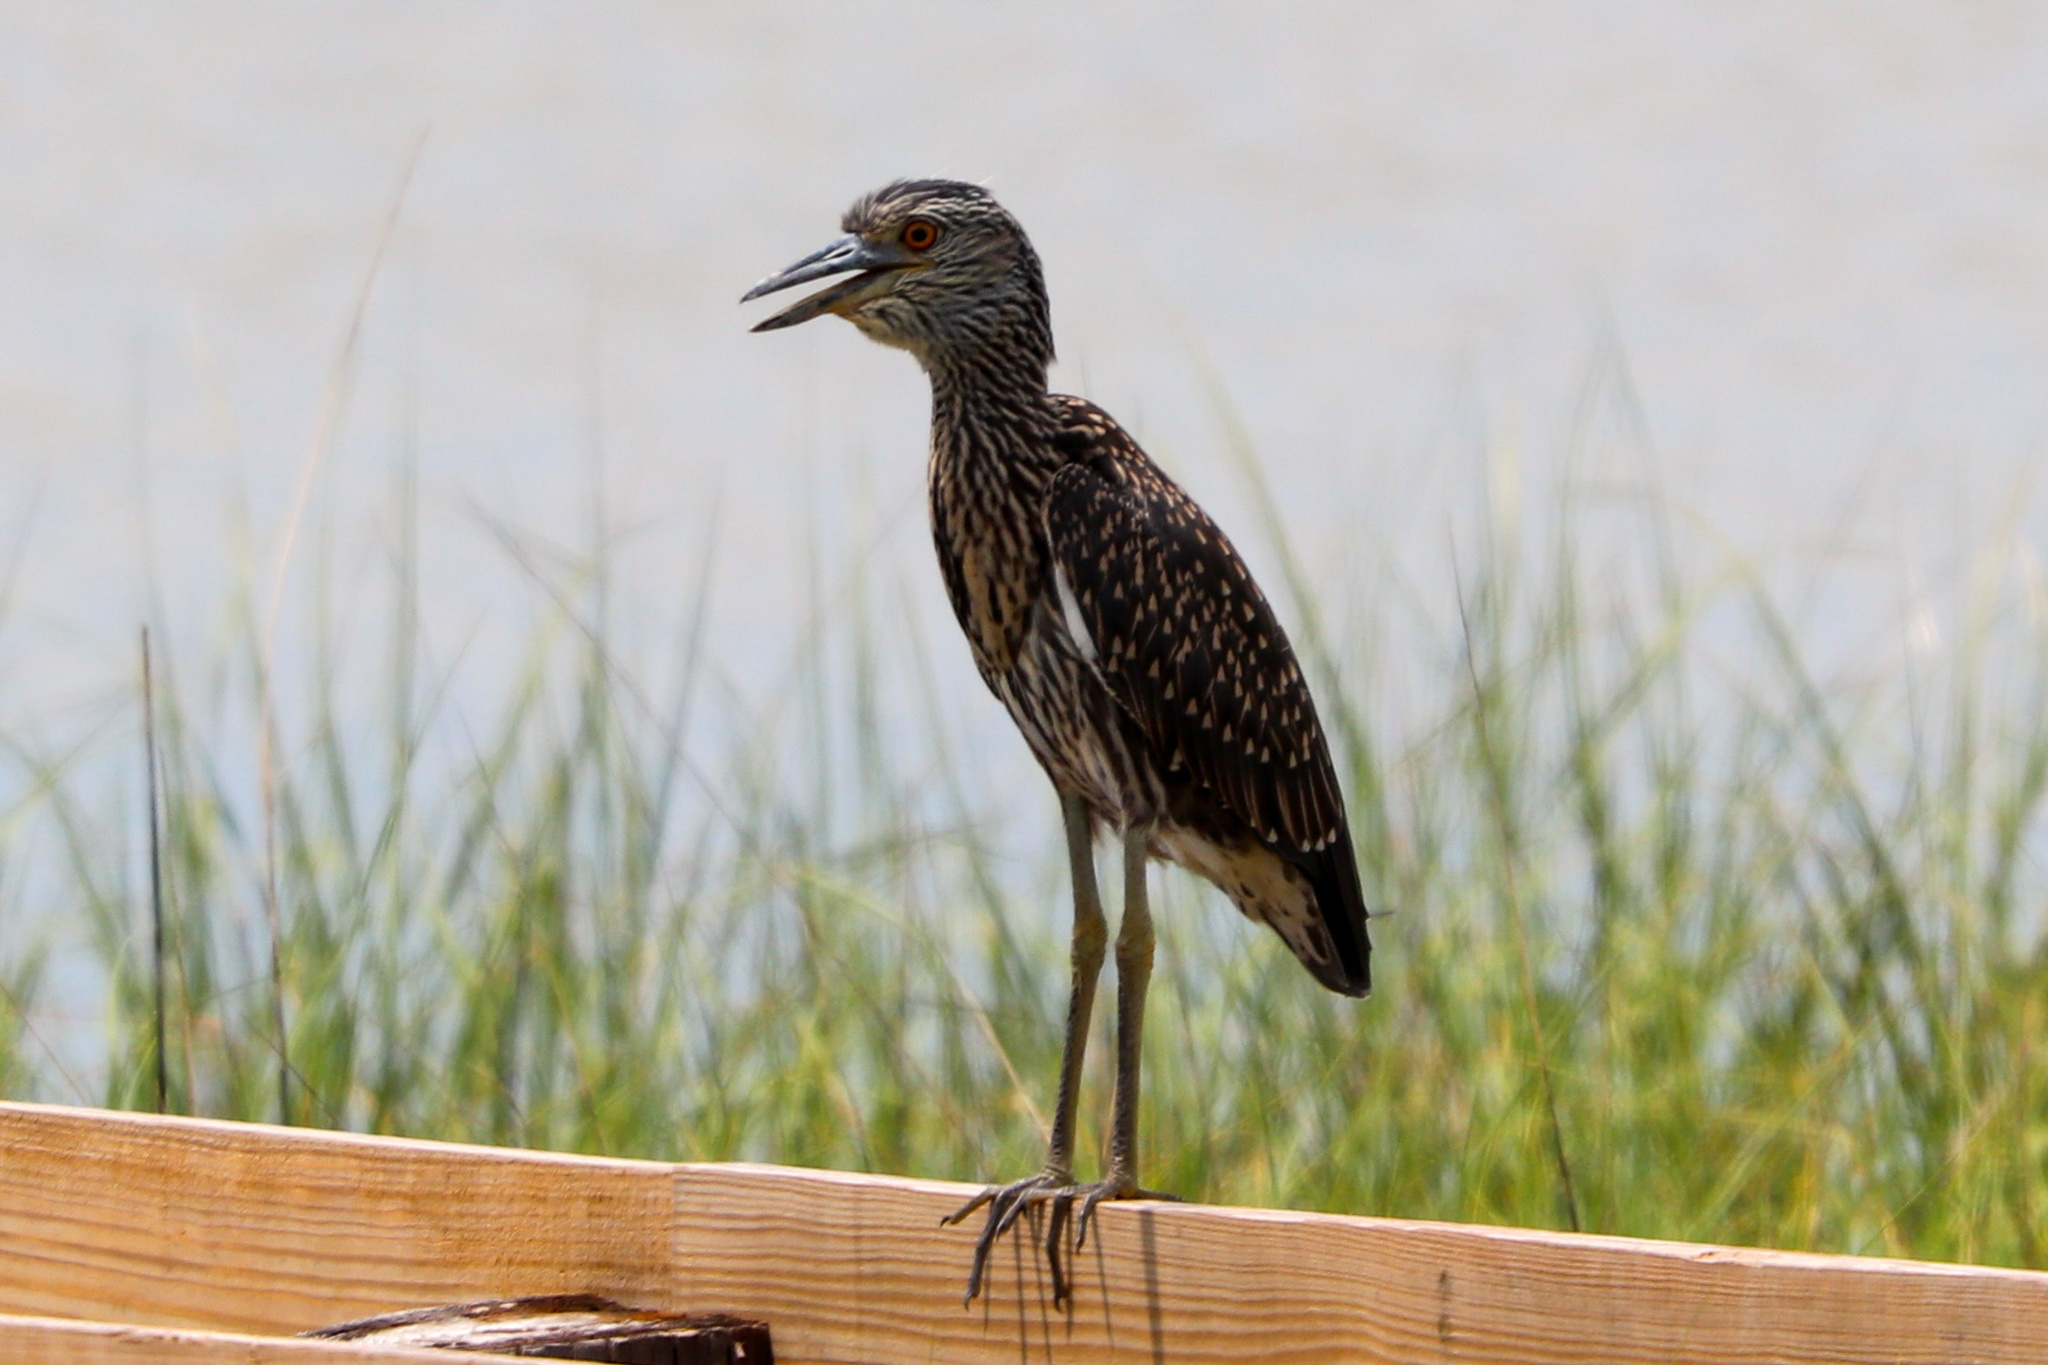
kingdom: Animalia
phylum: Chordata
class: Aves
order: Pelecaniformes
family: Ardeidae
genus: Nyctanassa
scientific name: Nyctanassa violacea
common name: Yellow-crowned night heron
